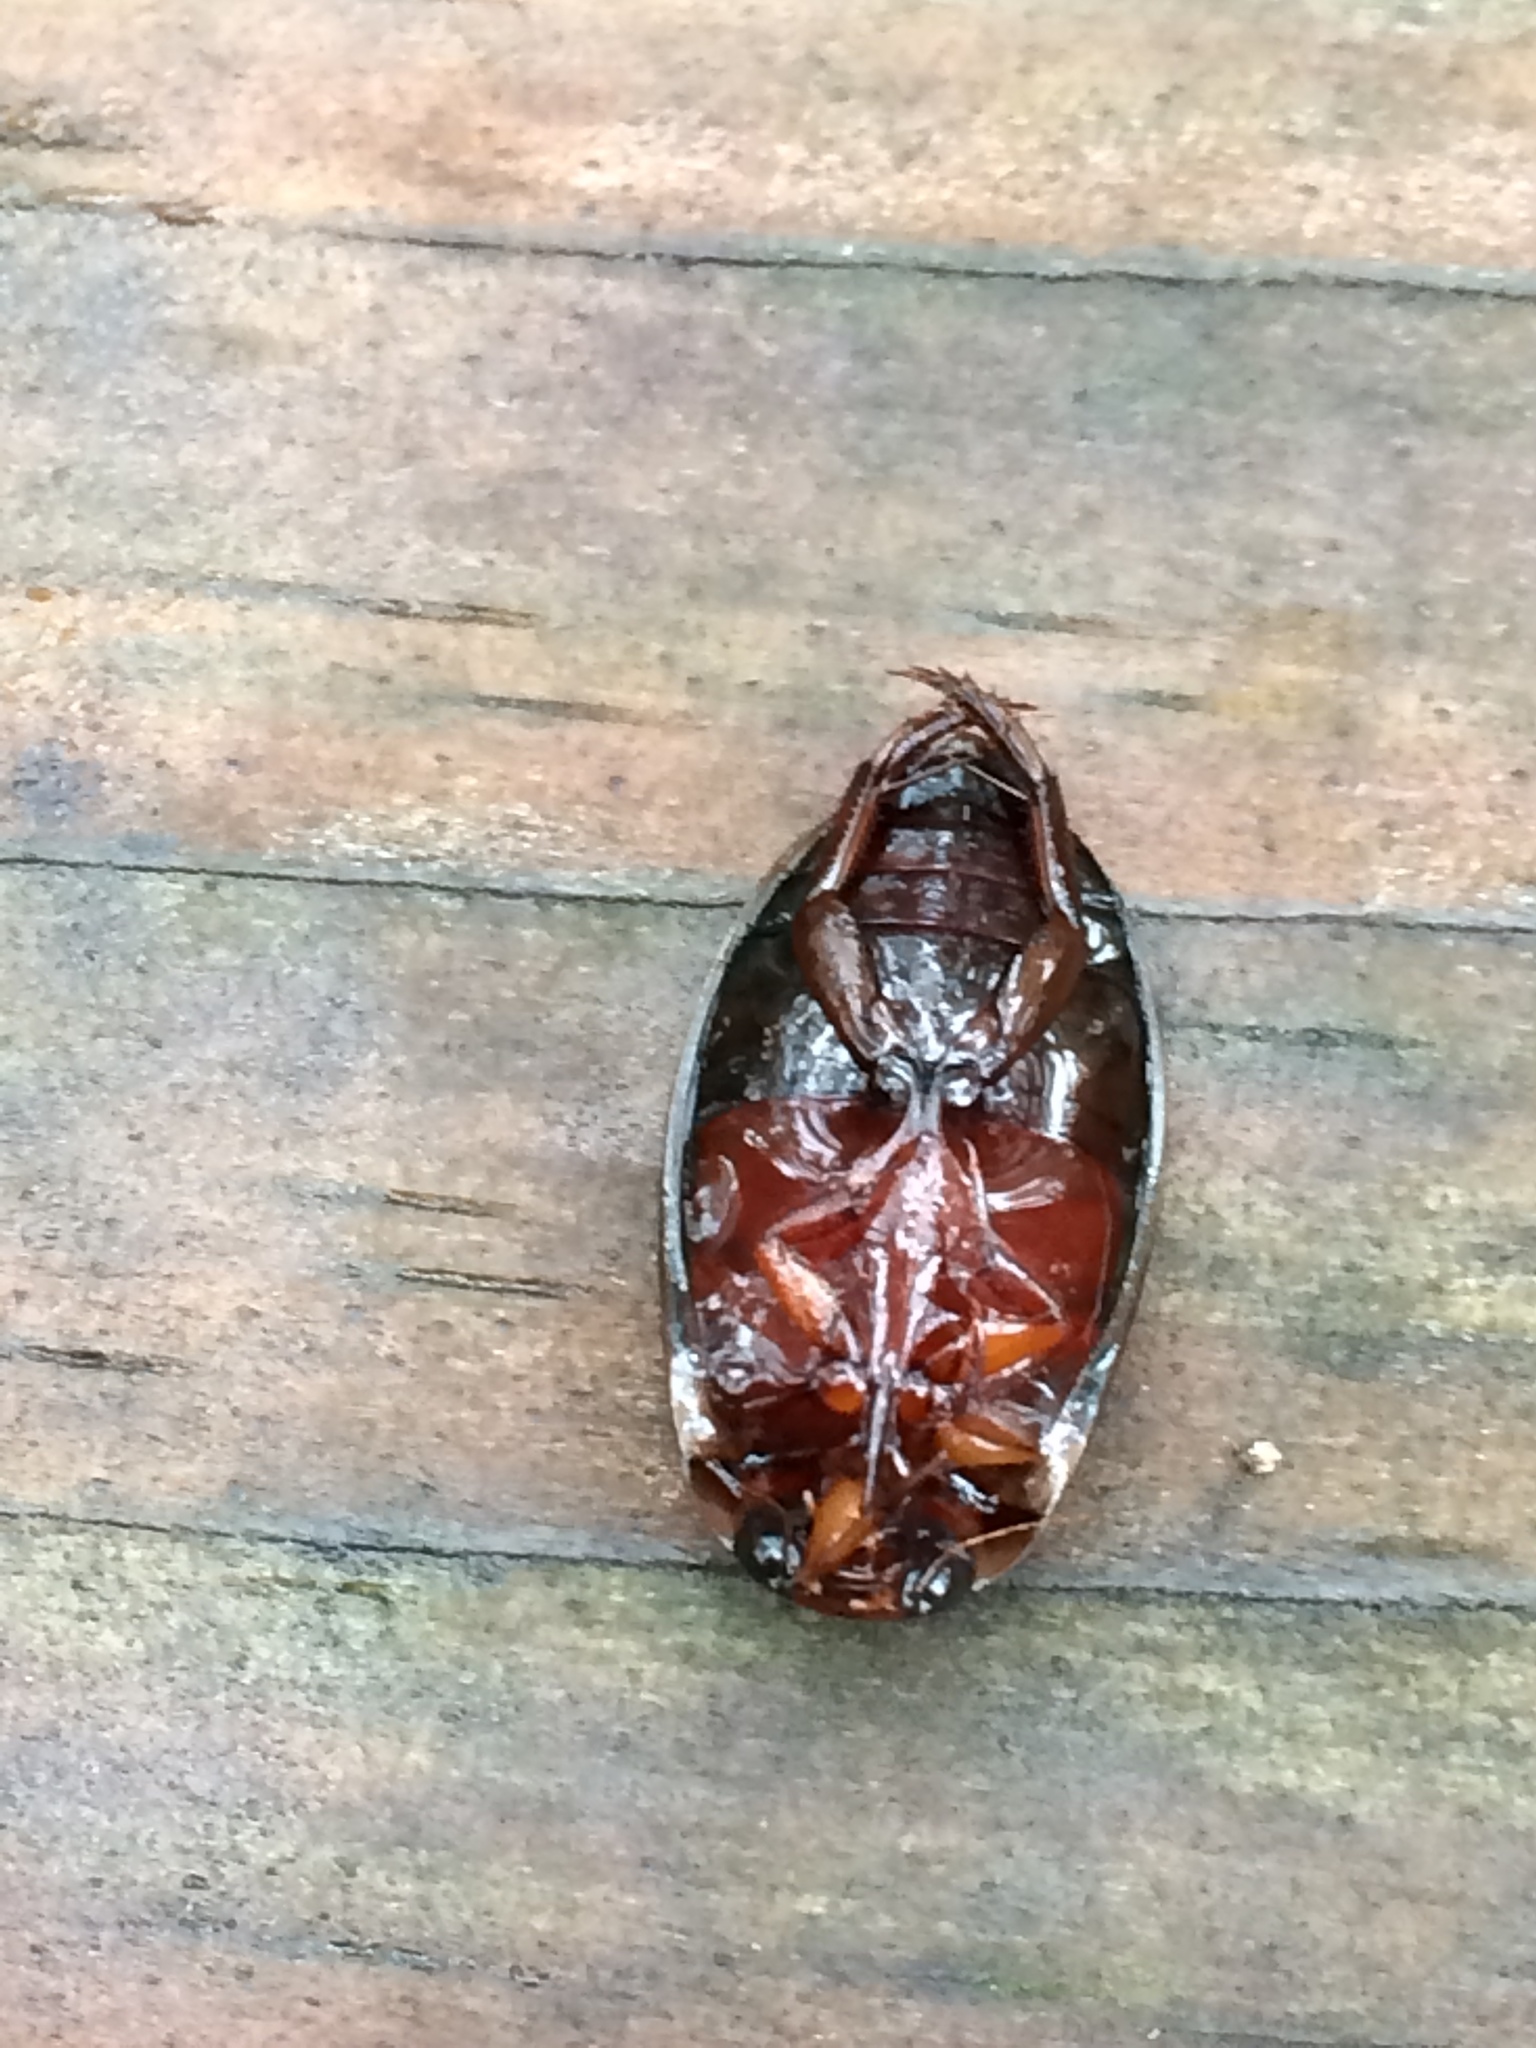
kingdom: Animalia
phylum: Arthropoda
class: Insecta
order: Coleoptera
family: Dytiscidae
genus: Meridiorhantus
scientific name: Meridiorhantus calidus
